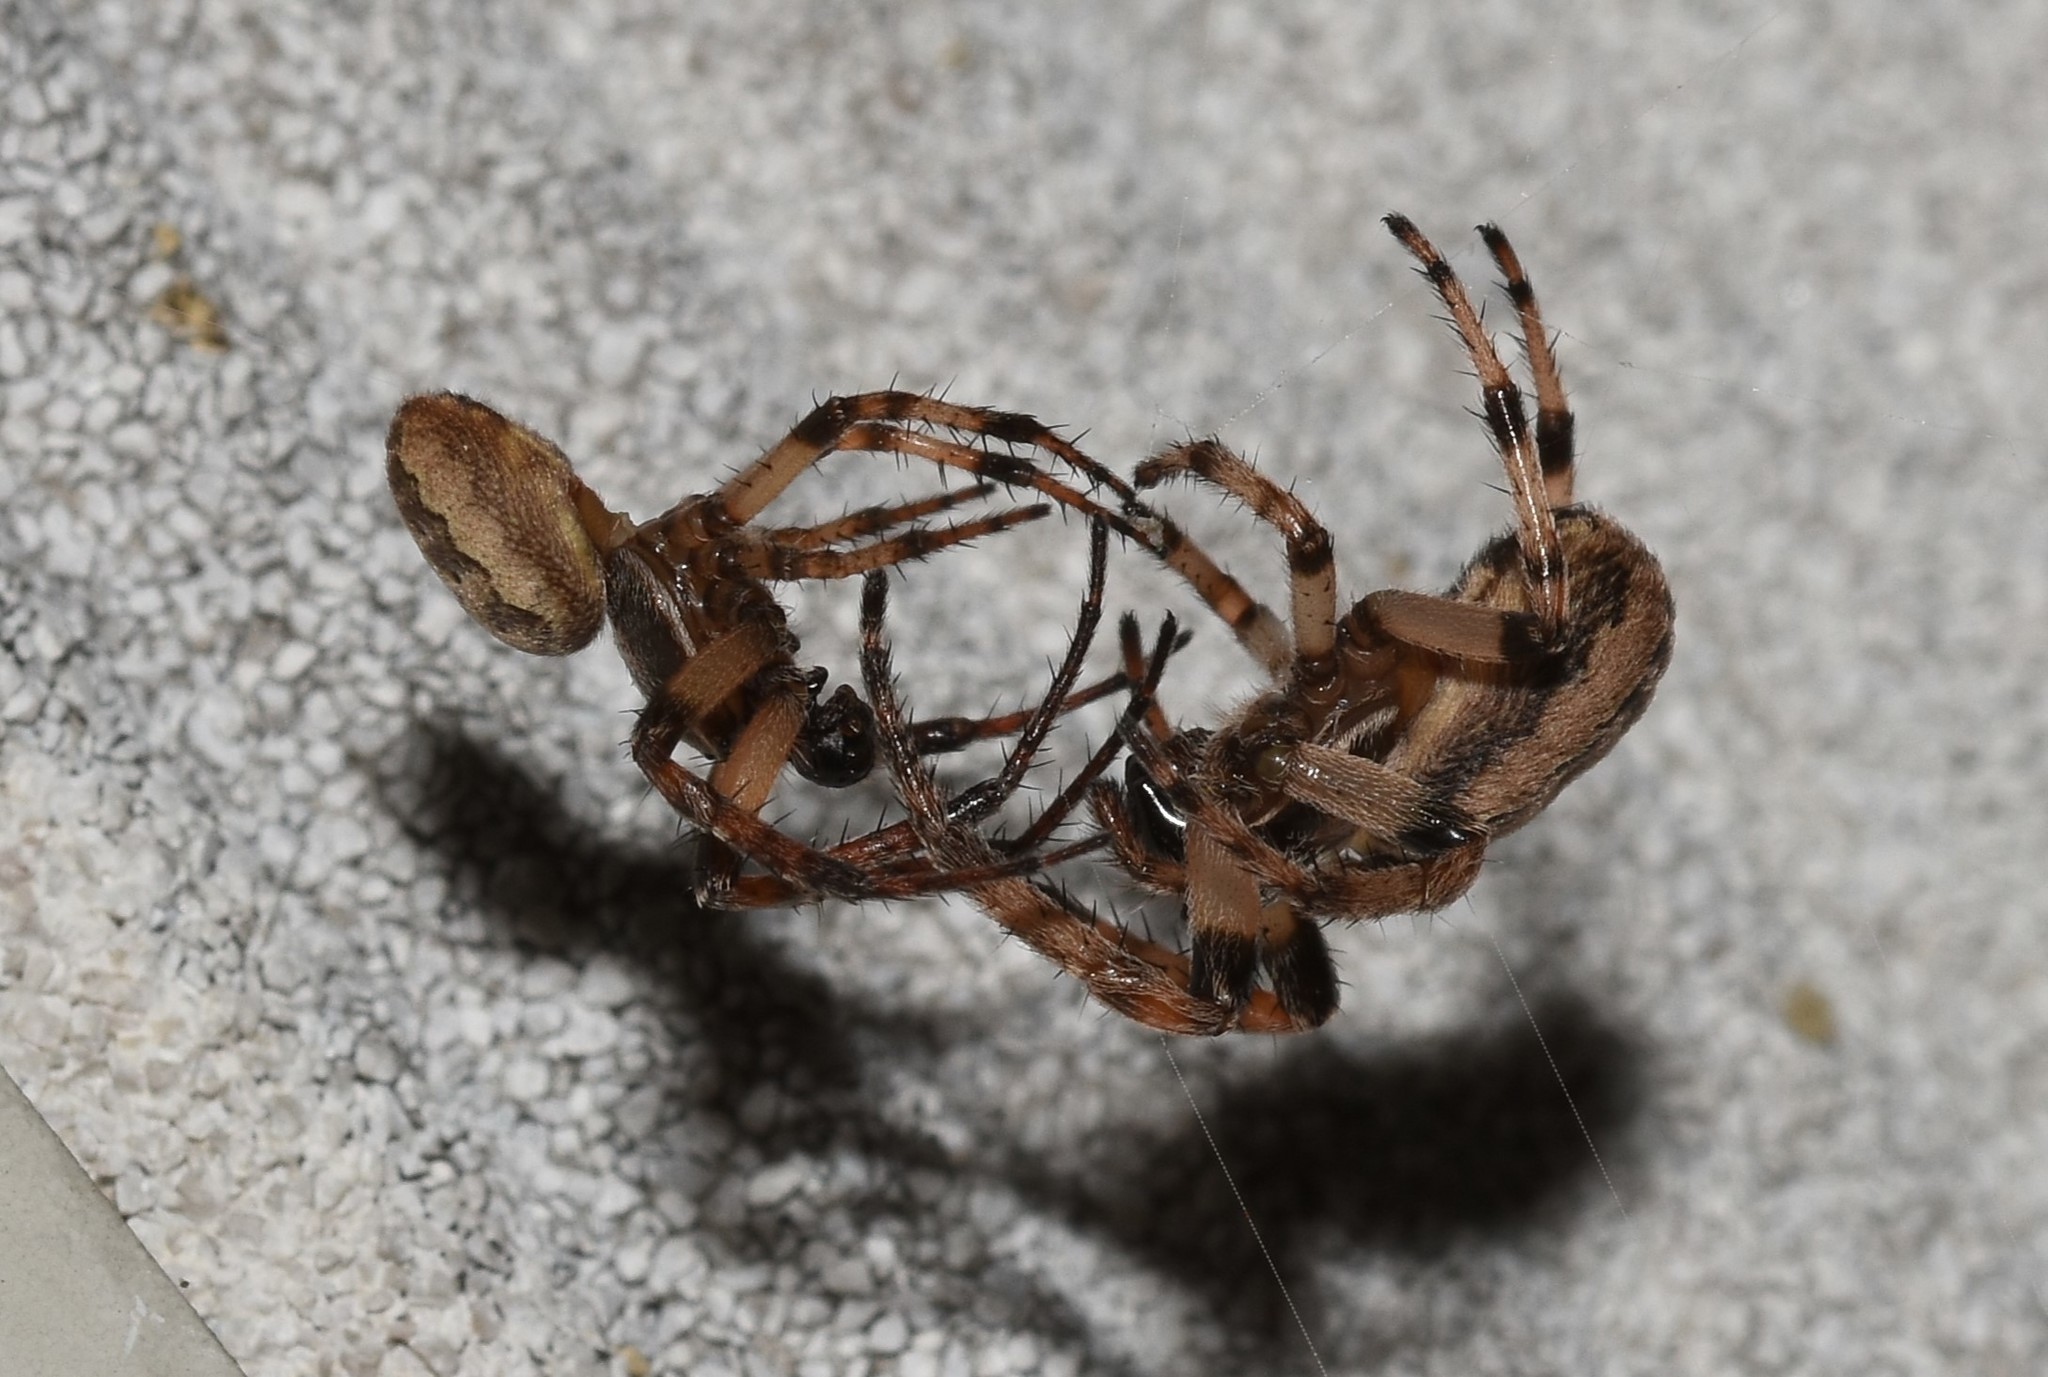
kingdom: Animalia
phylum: Arthropoda
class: Arachnida
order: Araneae
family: Araneidae
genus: Larinioides
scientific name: Larinioides cornutus
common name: Furrow orbweaver
